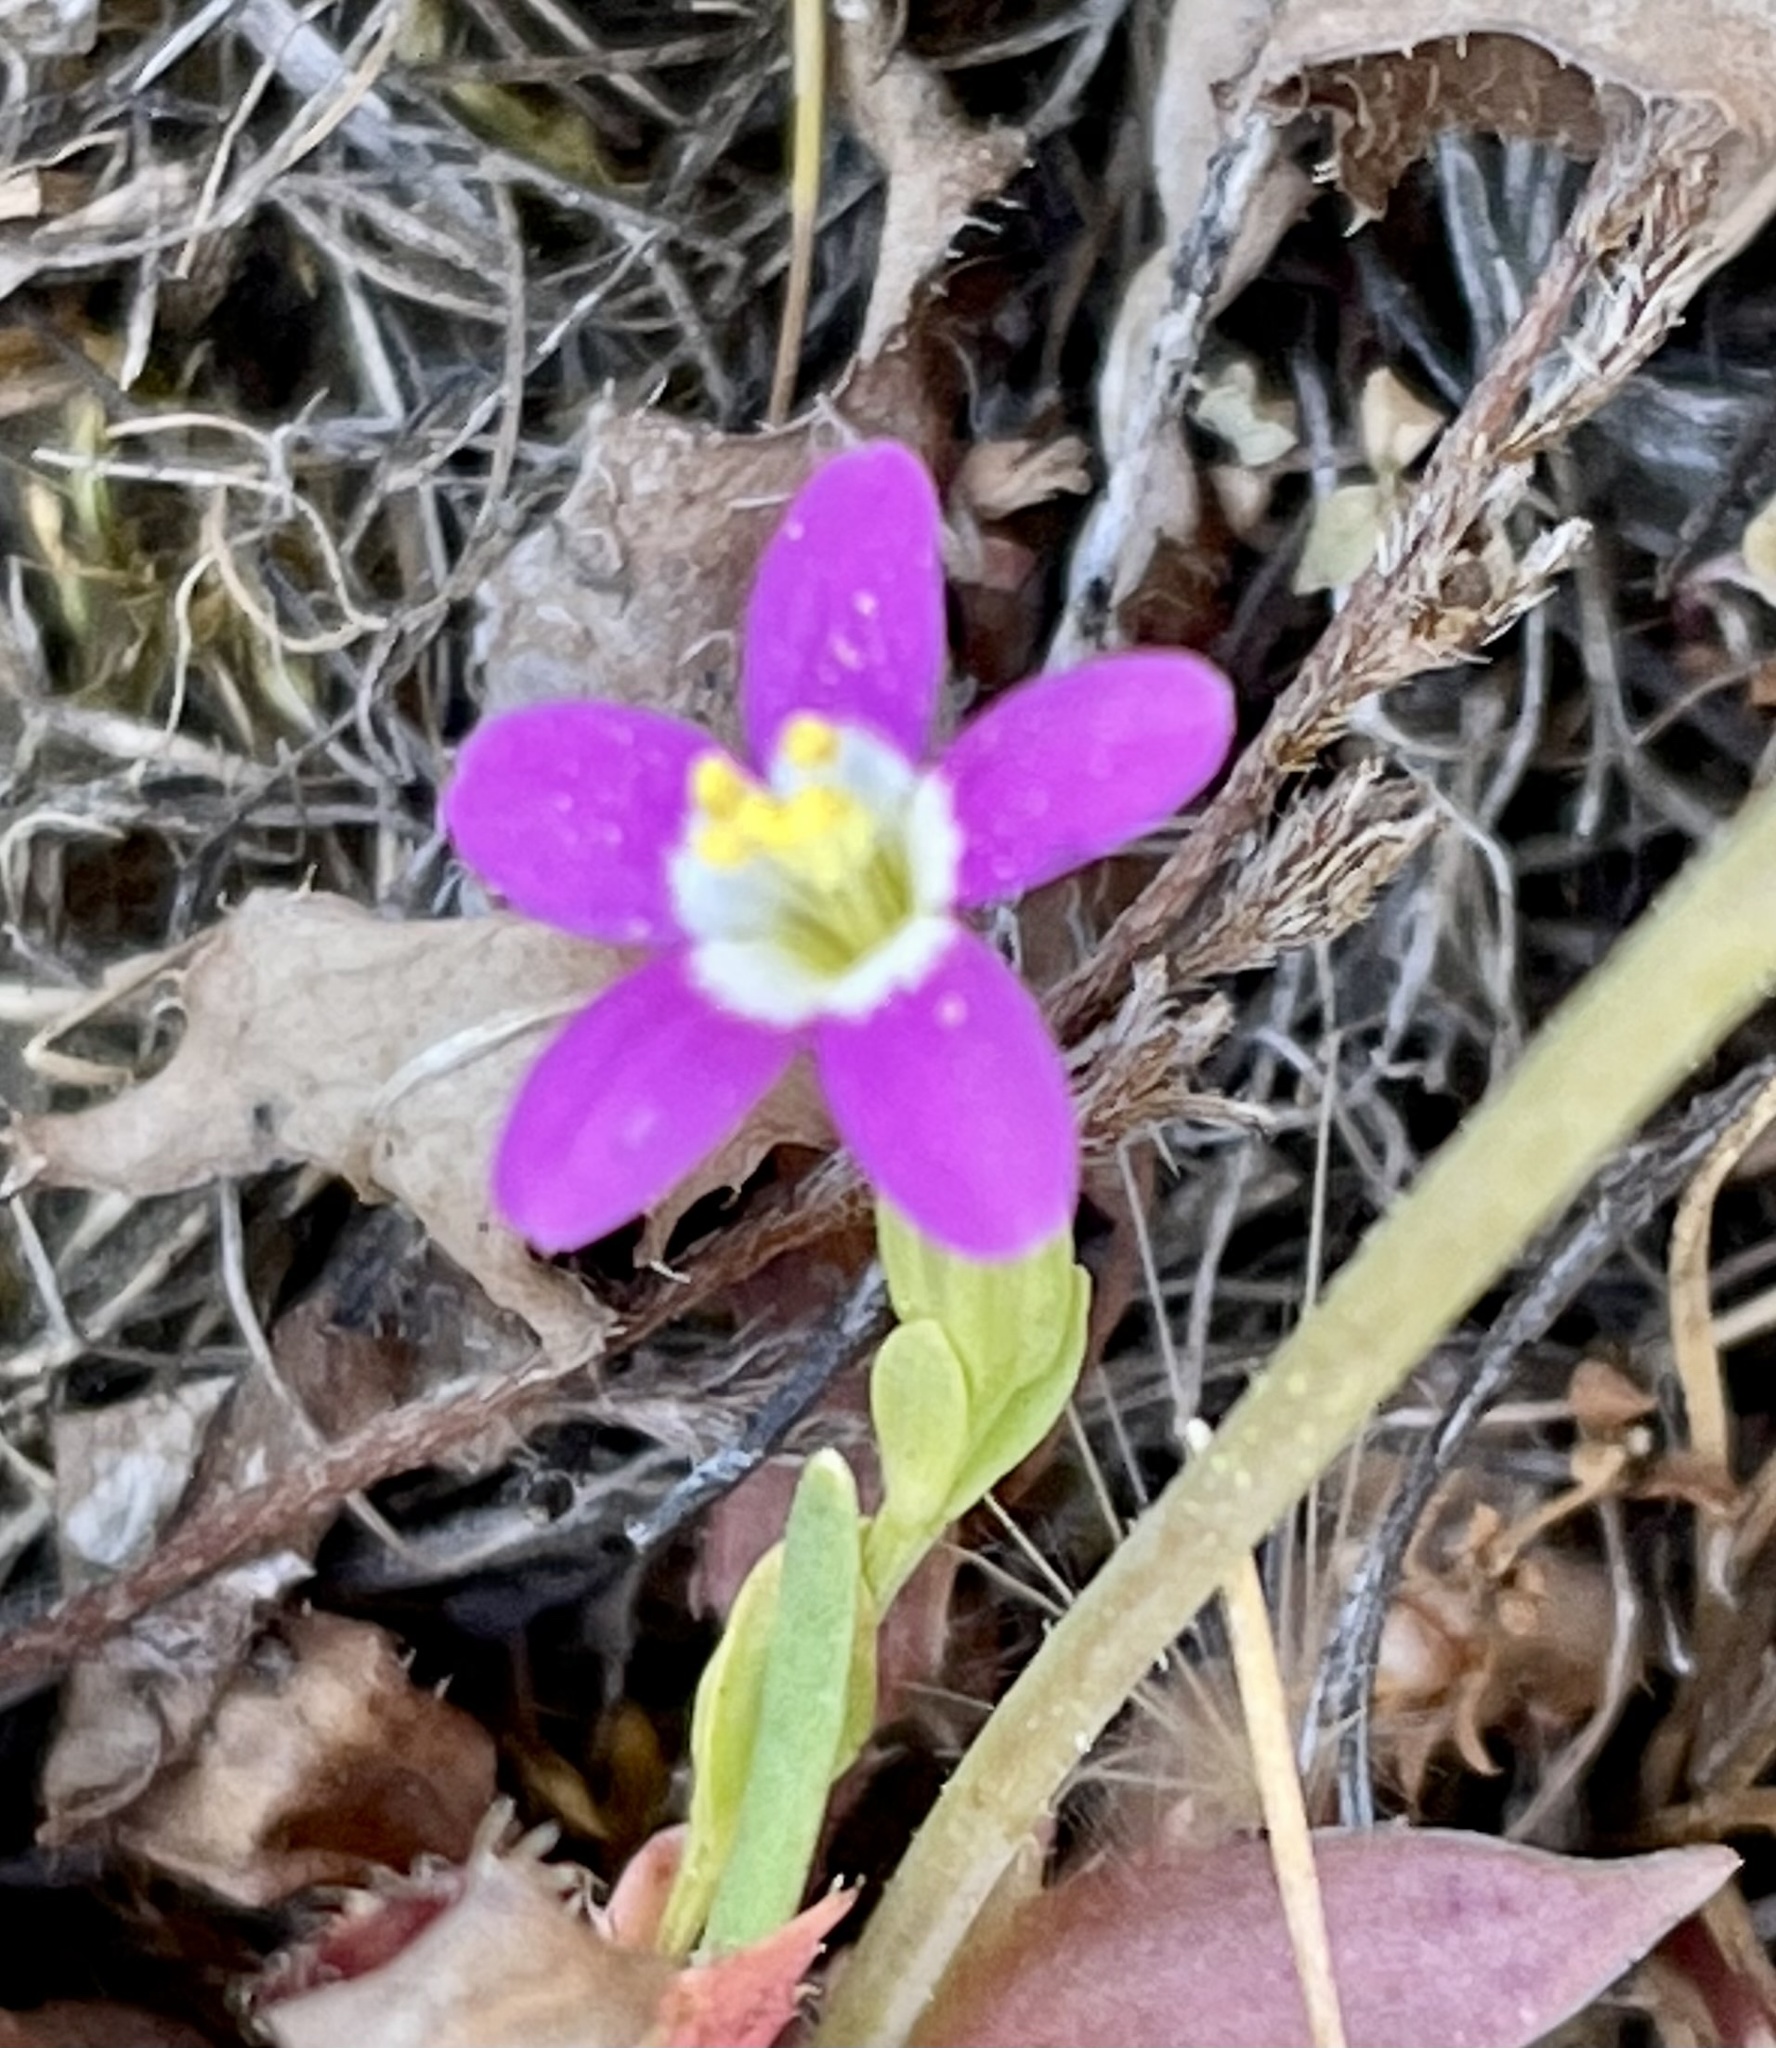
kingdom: Plantae
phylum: Tracheophyta
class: Magnoliopsida
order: Gentianales
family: Gentianaceae
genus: Zeltnera
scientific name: Zeltnera davyi
